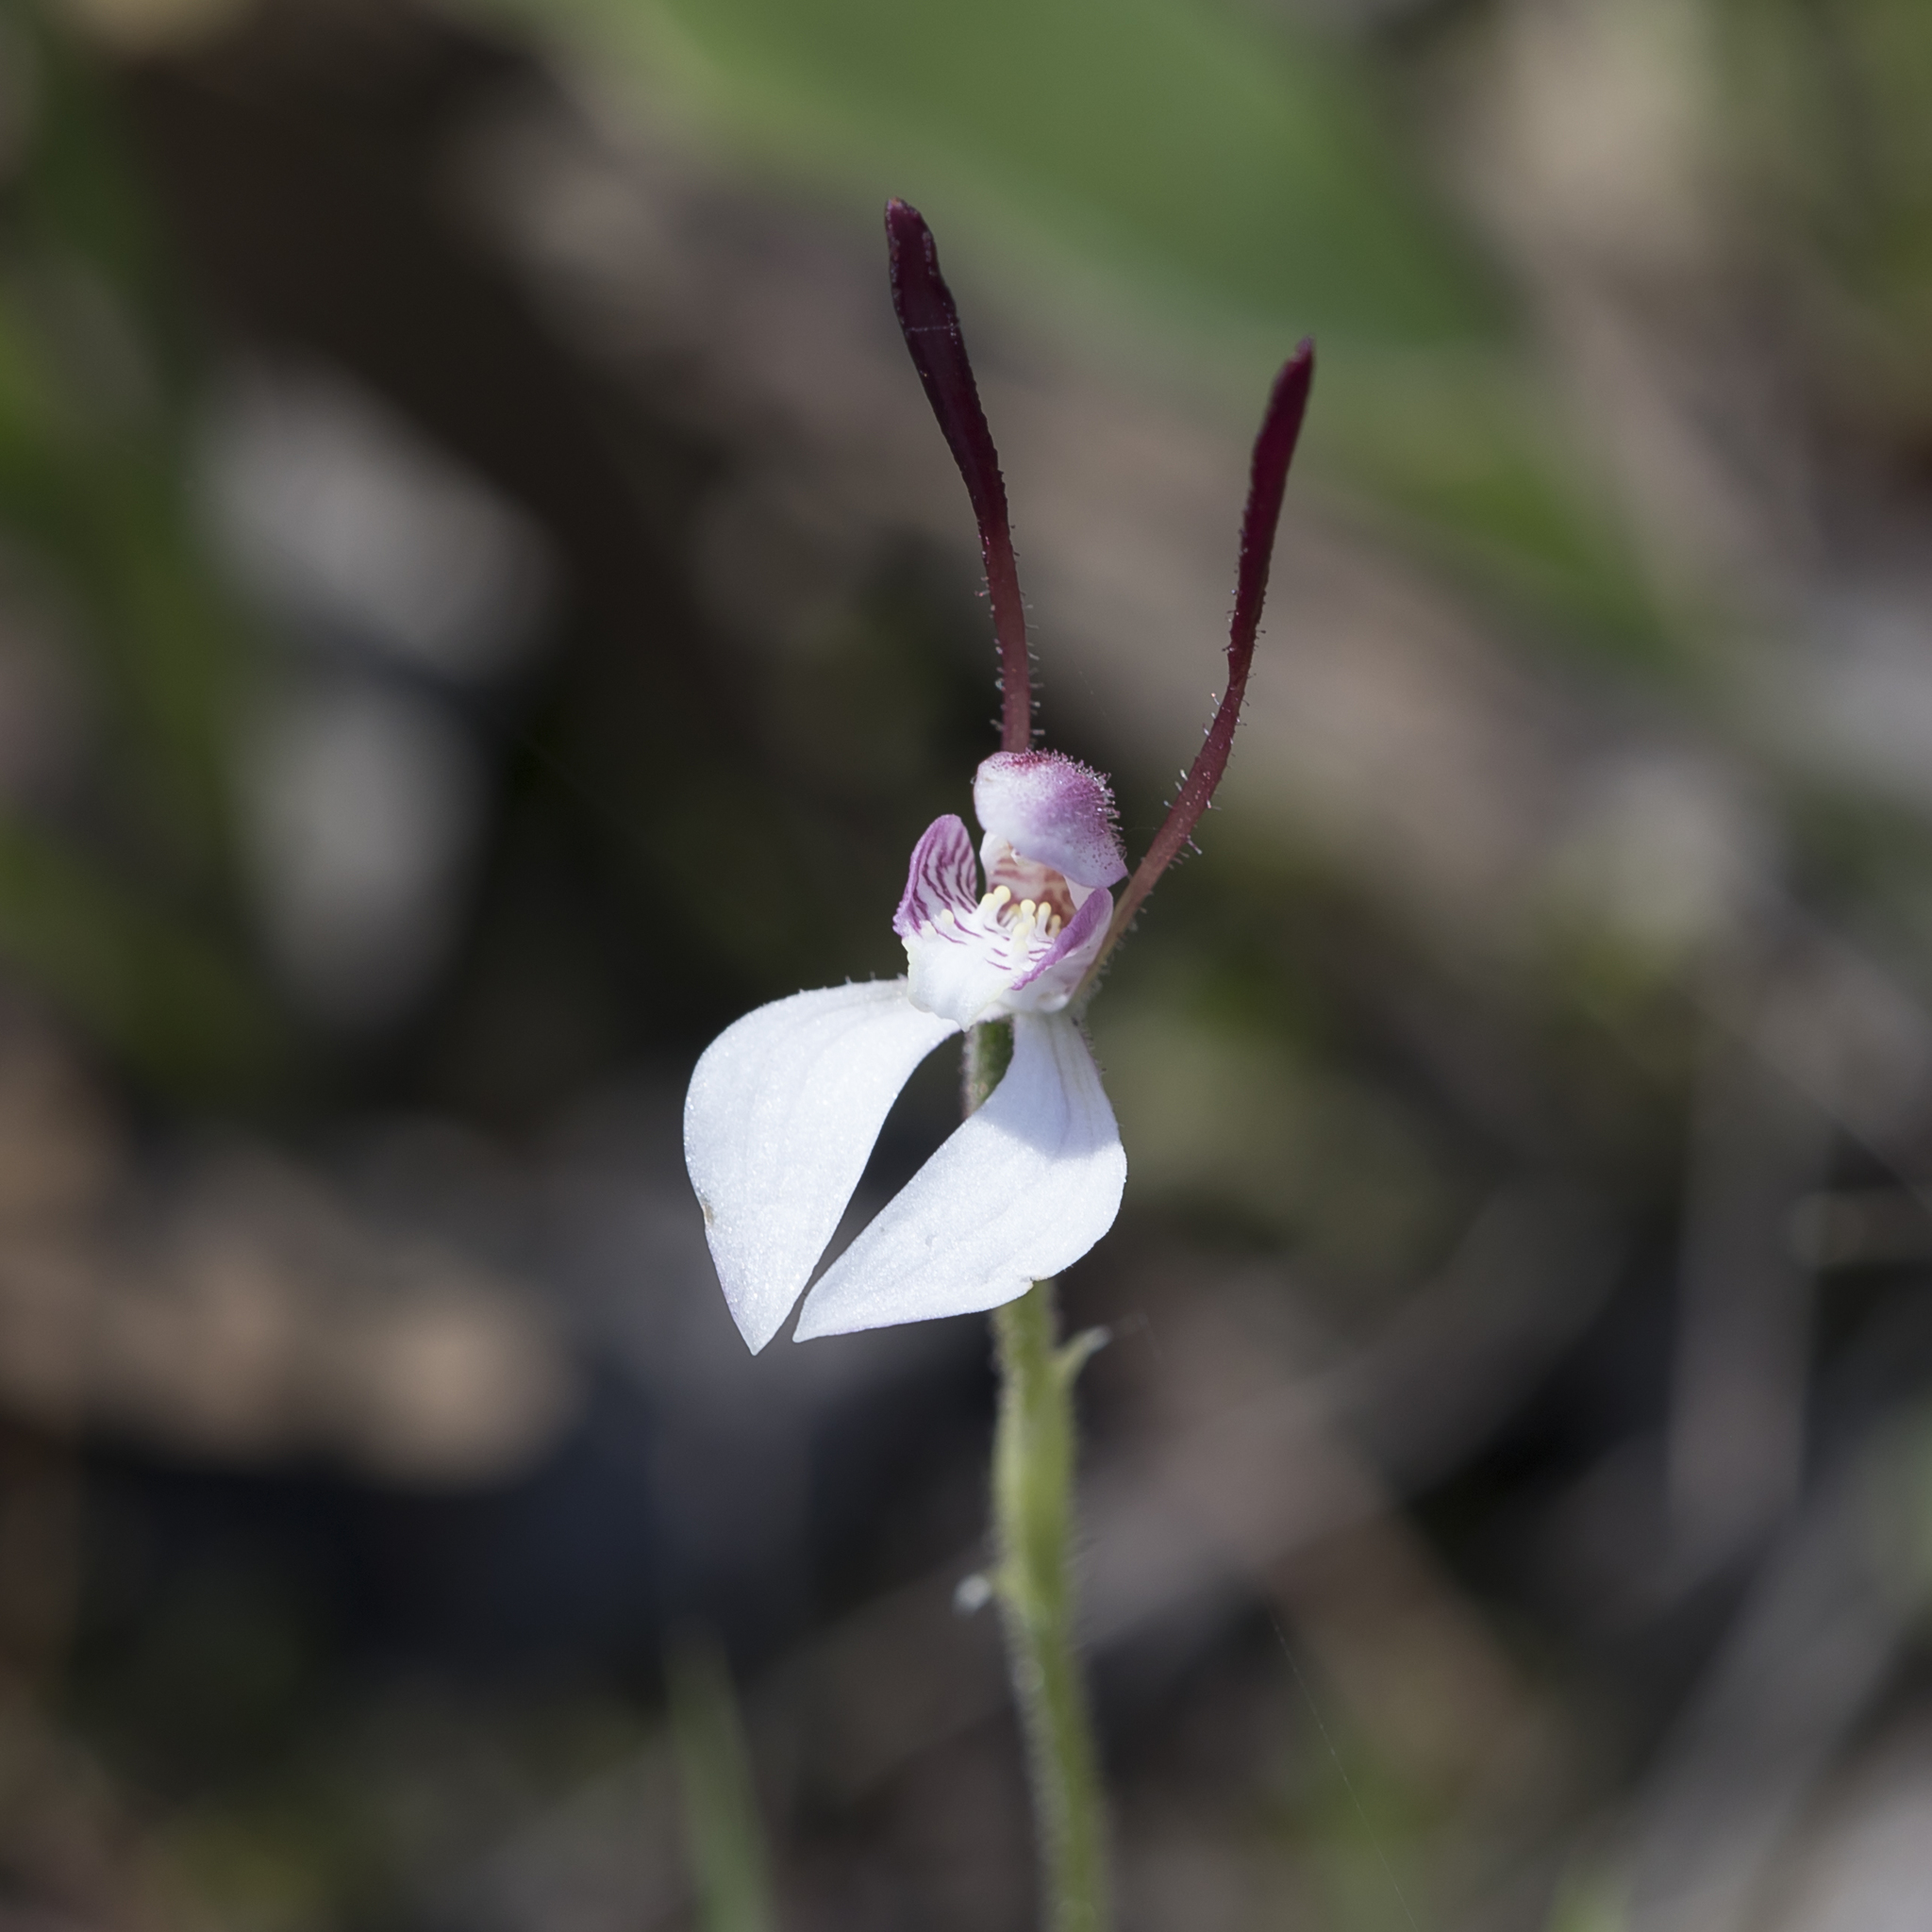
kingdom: Plantae
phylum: Tracheophyta
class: Liliopsida
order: Asparagales
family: Orchidaceae
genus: Leptoceras
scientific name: Leptoceras menziesii
